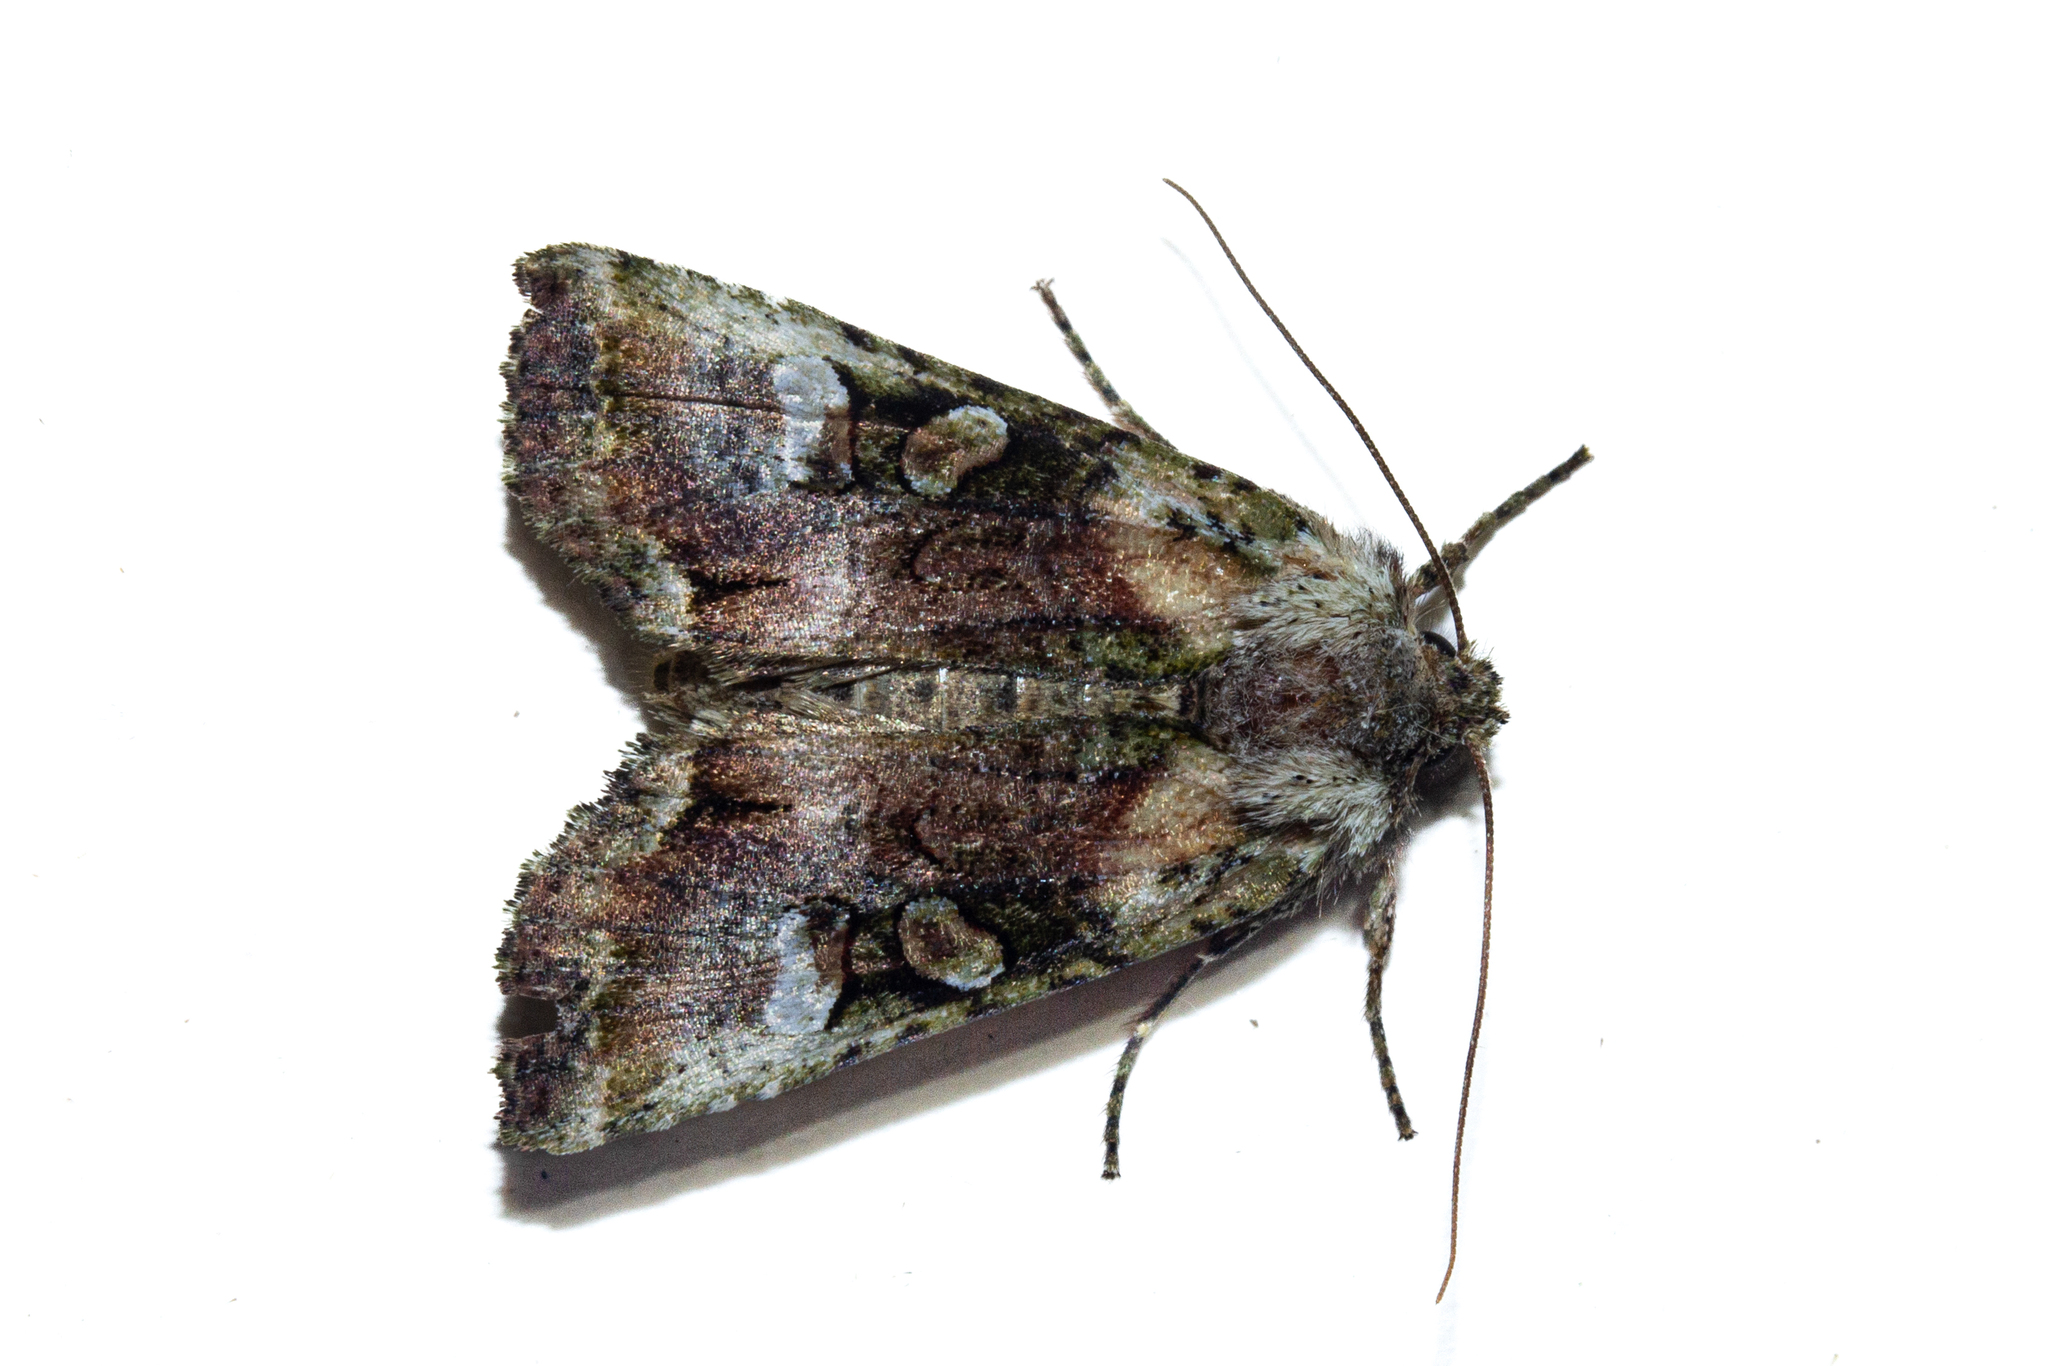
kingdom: Animalia
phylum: Arthropoda
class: Insecta
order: Lepidoptera
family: Noctuidae
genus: Meterana
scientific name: Meterana levis
